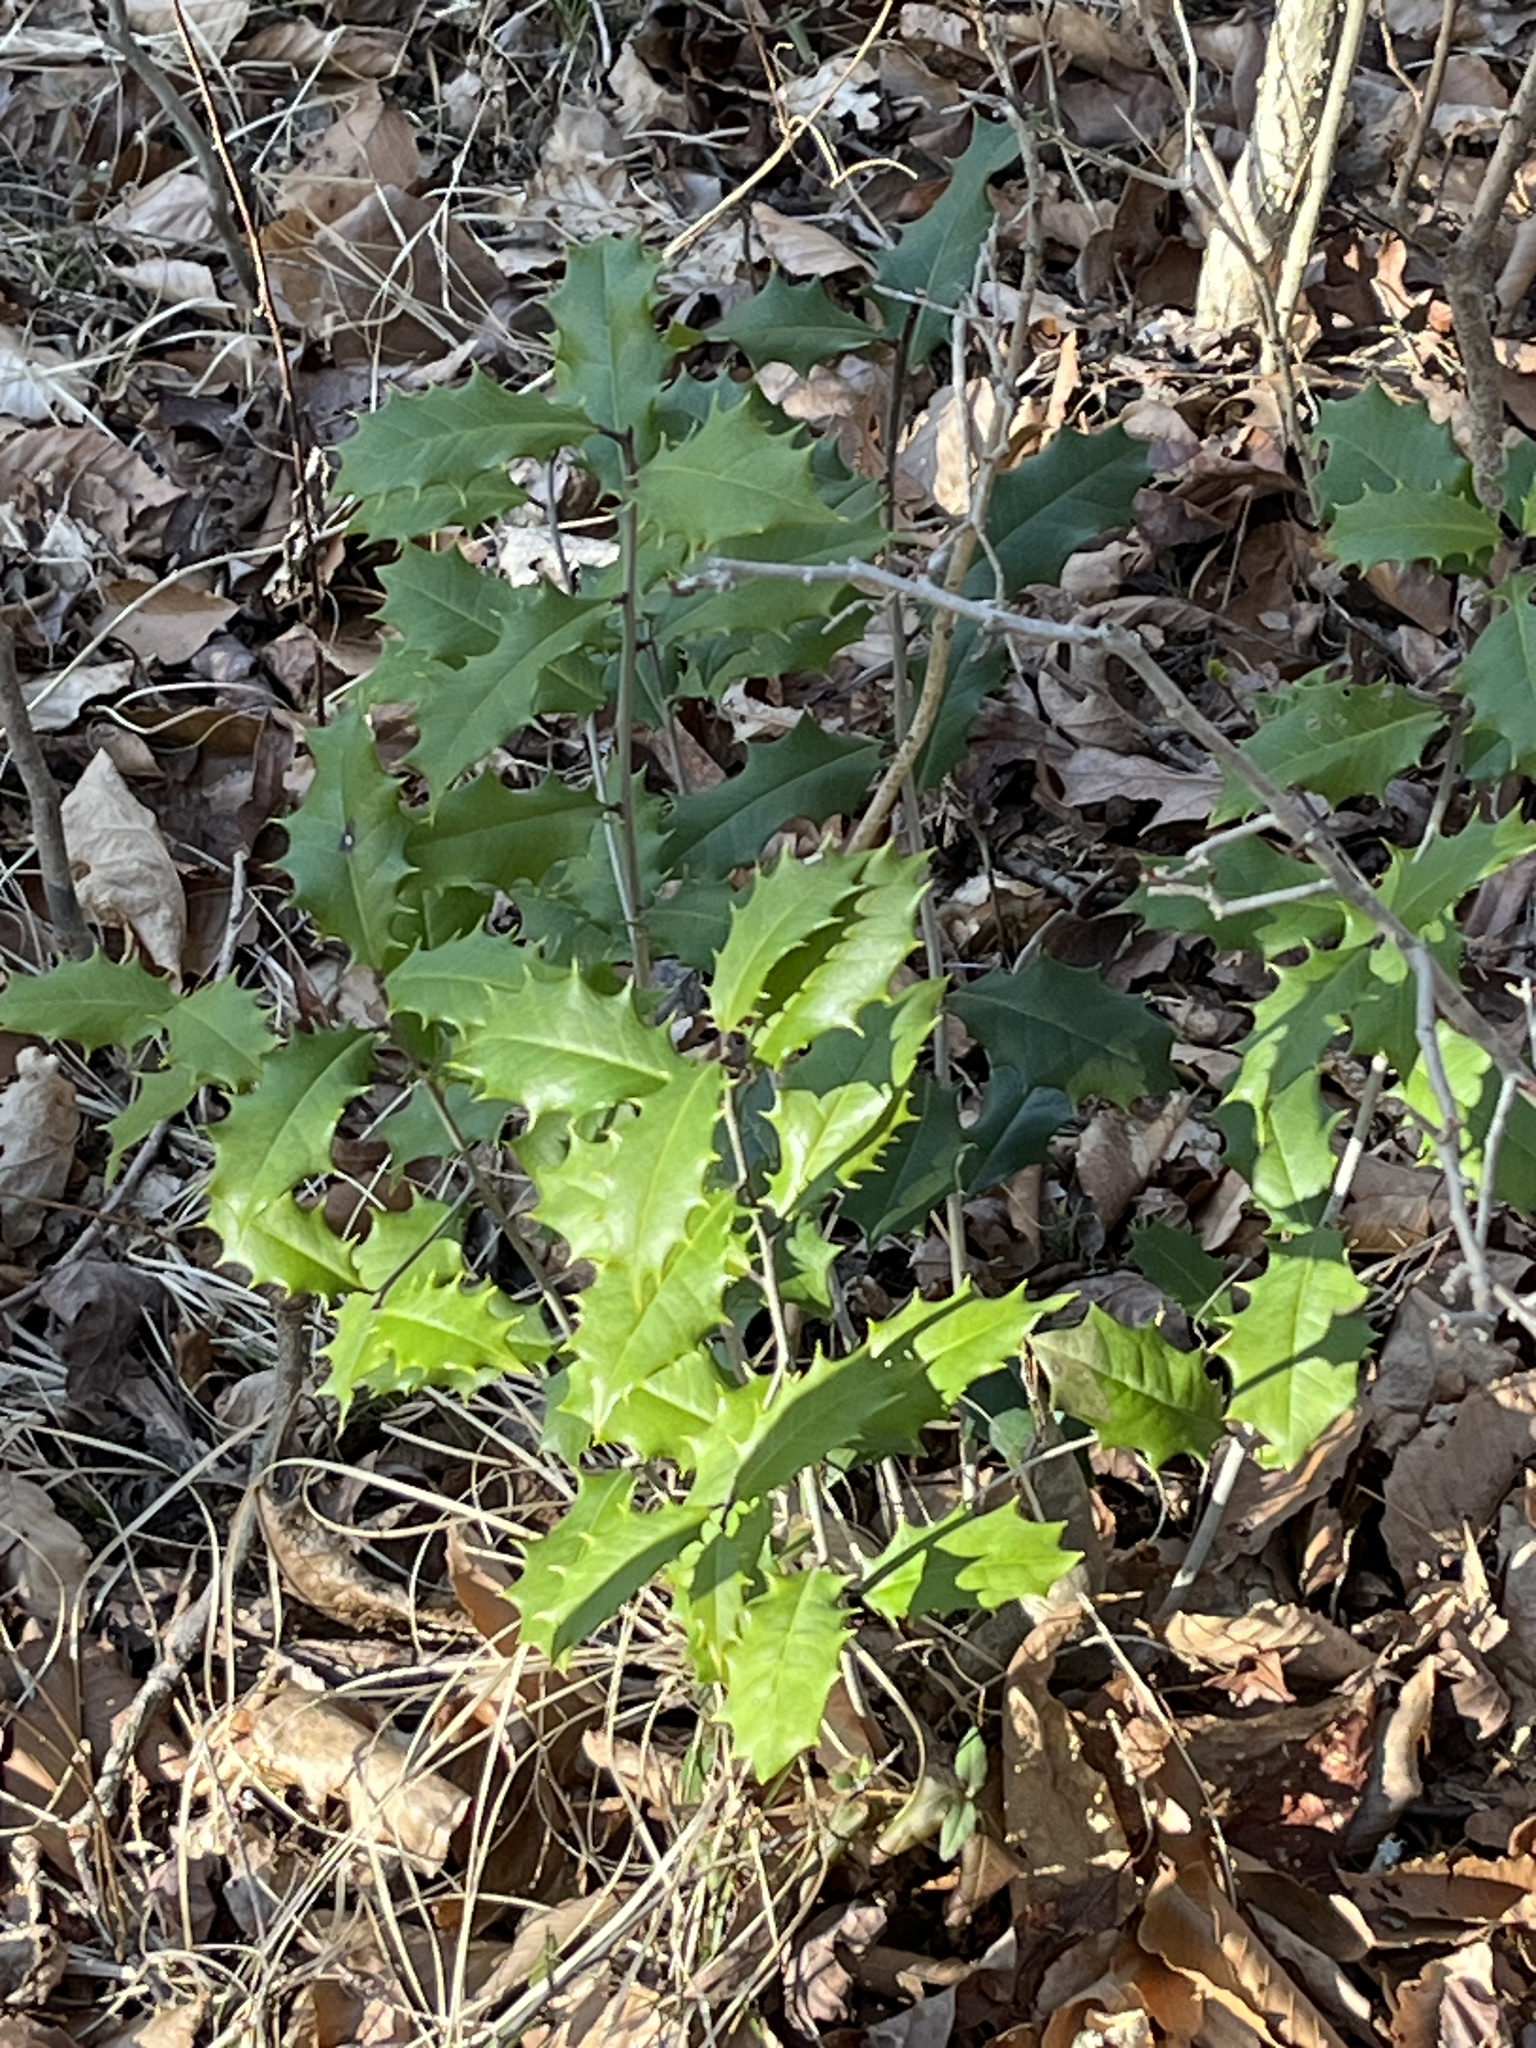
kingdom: Plantae
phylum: Tracheophyta
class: Magnoliopsida
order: Aquifoliales
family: Aquifoliaceae
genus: Ilex
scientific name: Ilex opaca
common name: American holly
